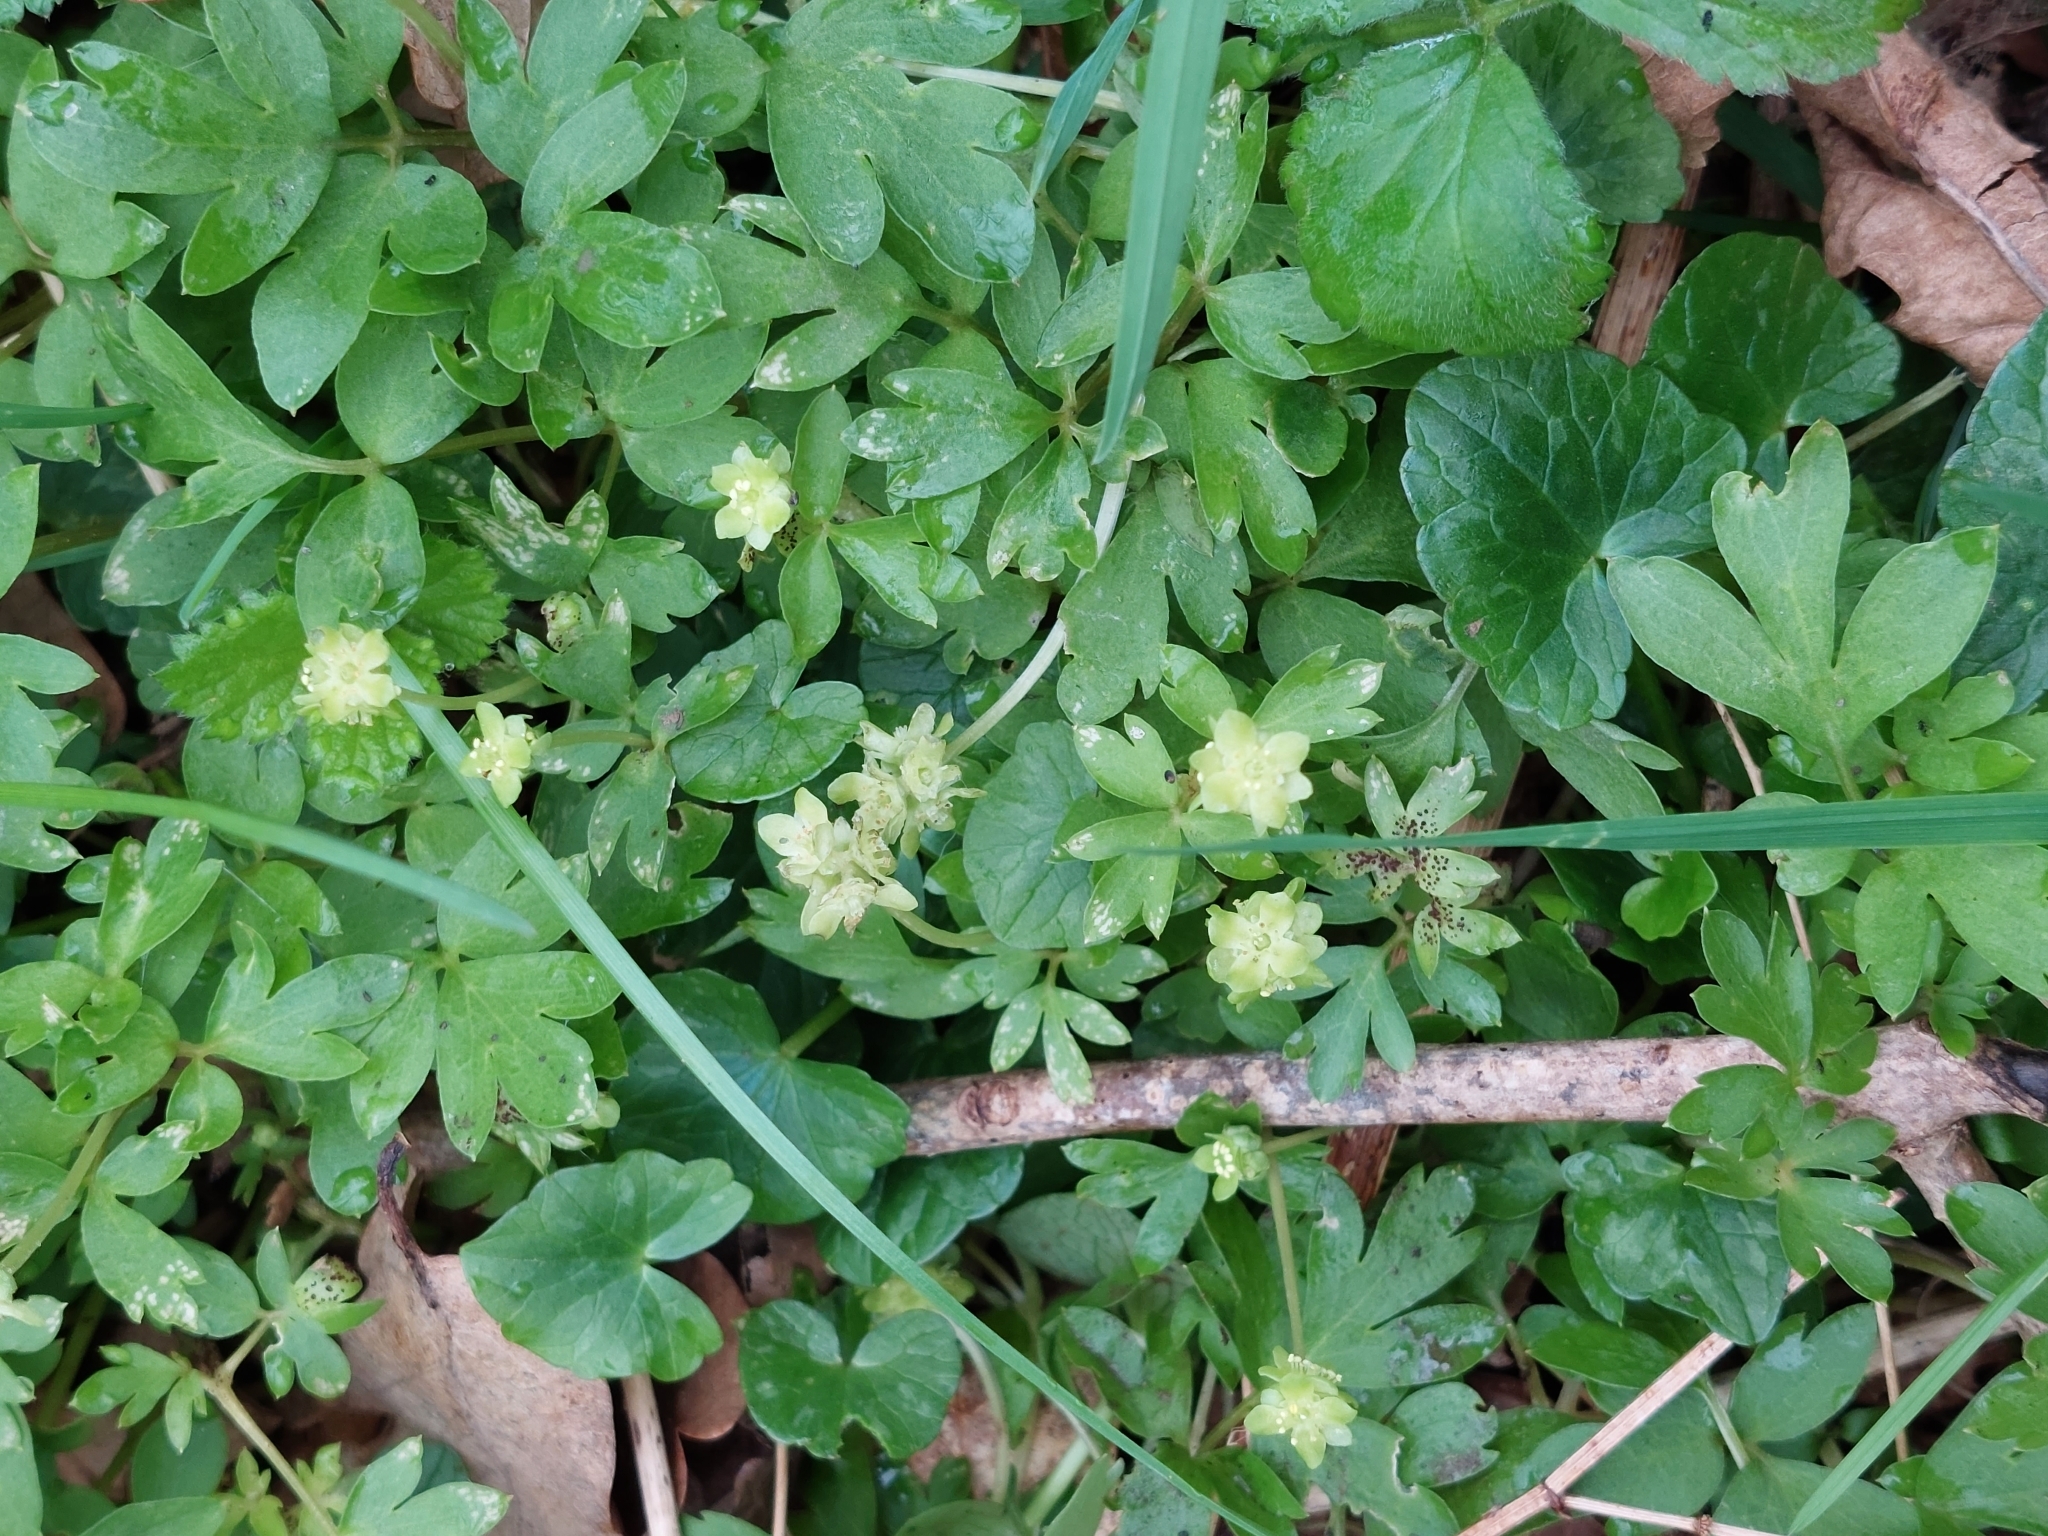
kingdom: Plantae
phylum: Tracheophyta
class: Magnoliopsida
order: Dipsacales
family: Viburnaceae
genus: Adoxa
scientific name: Adoxa moschatellina
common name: Moschatel
